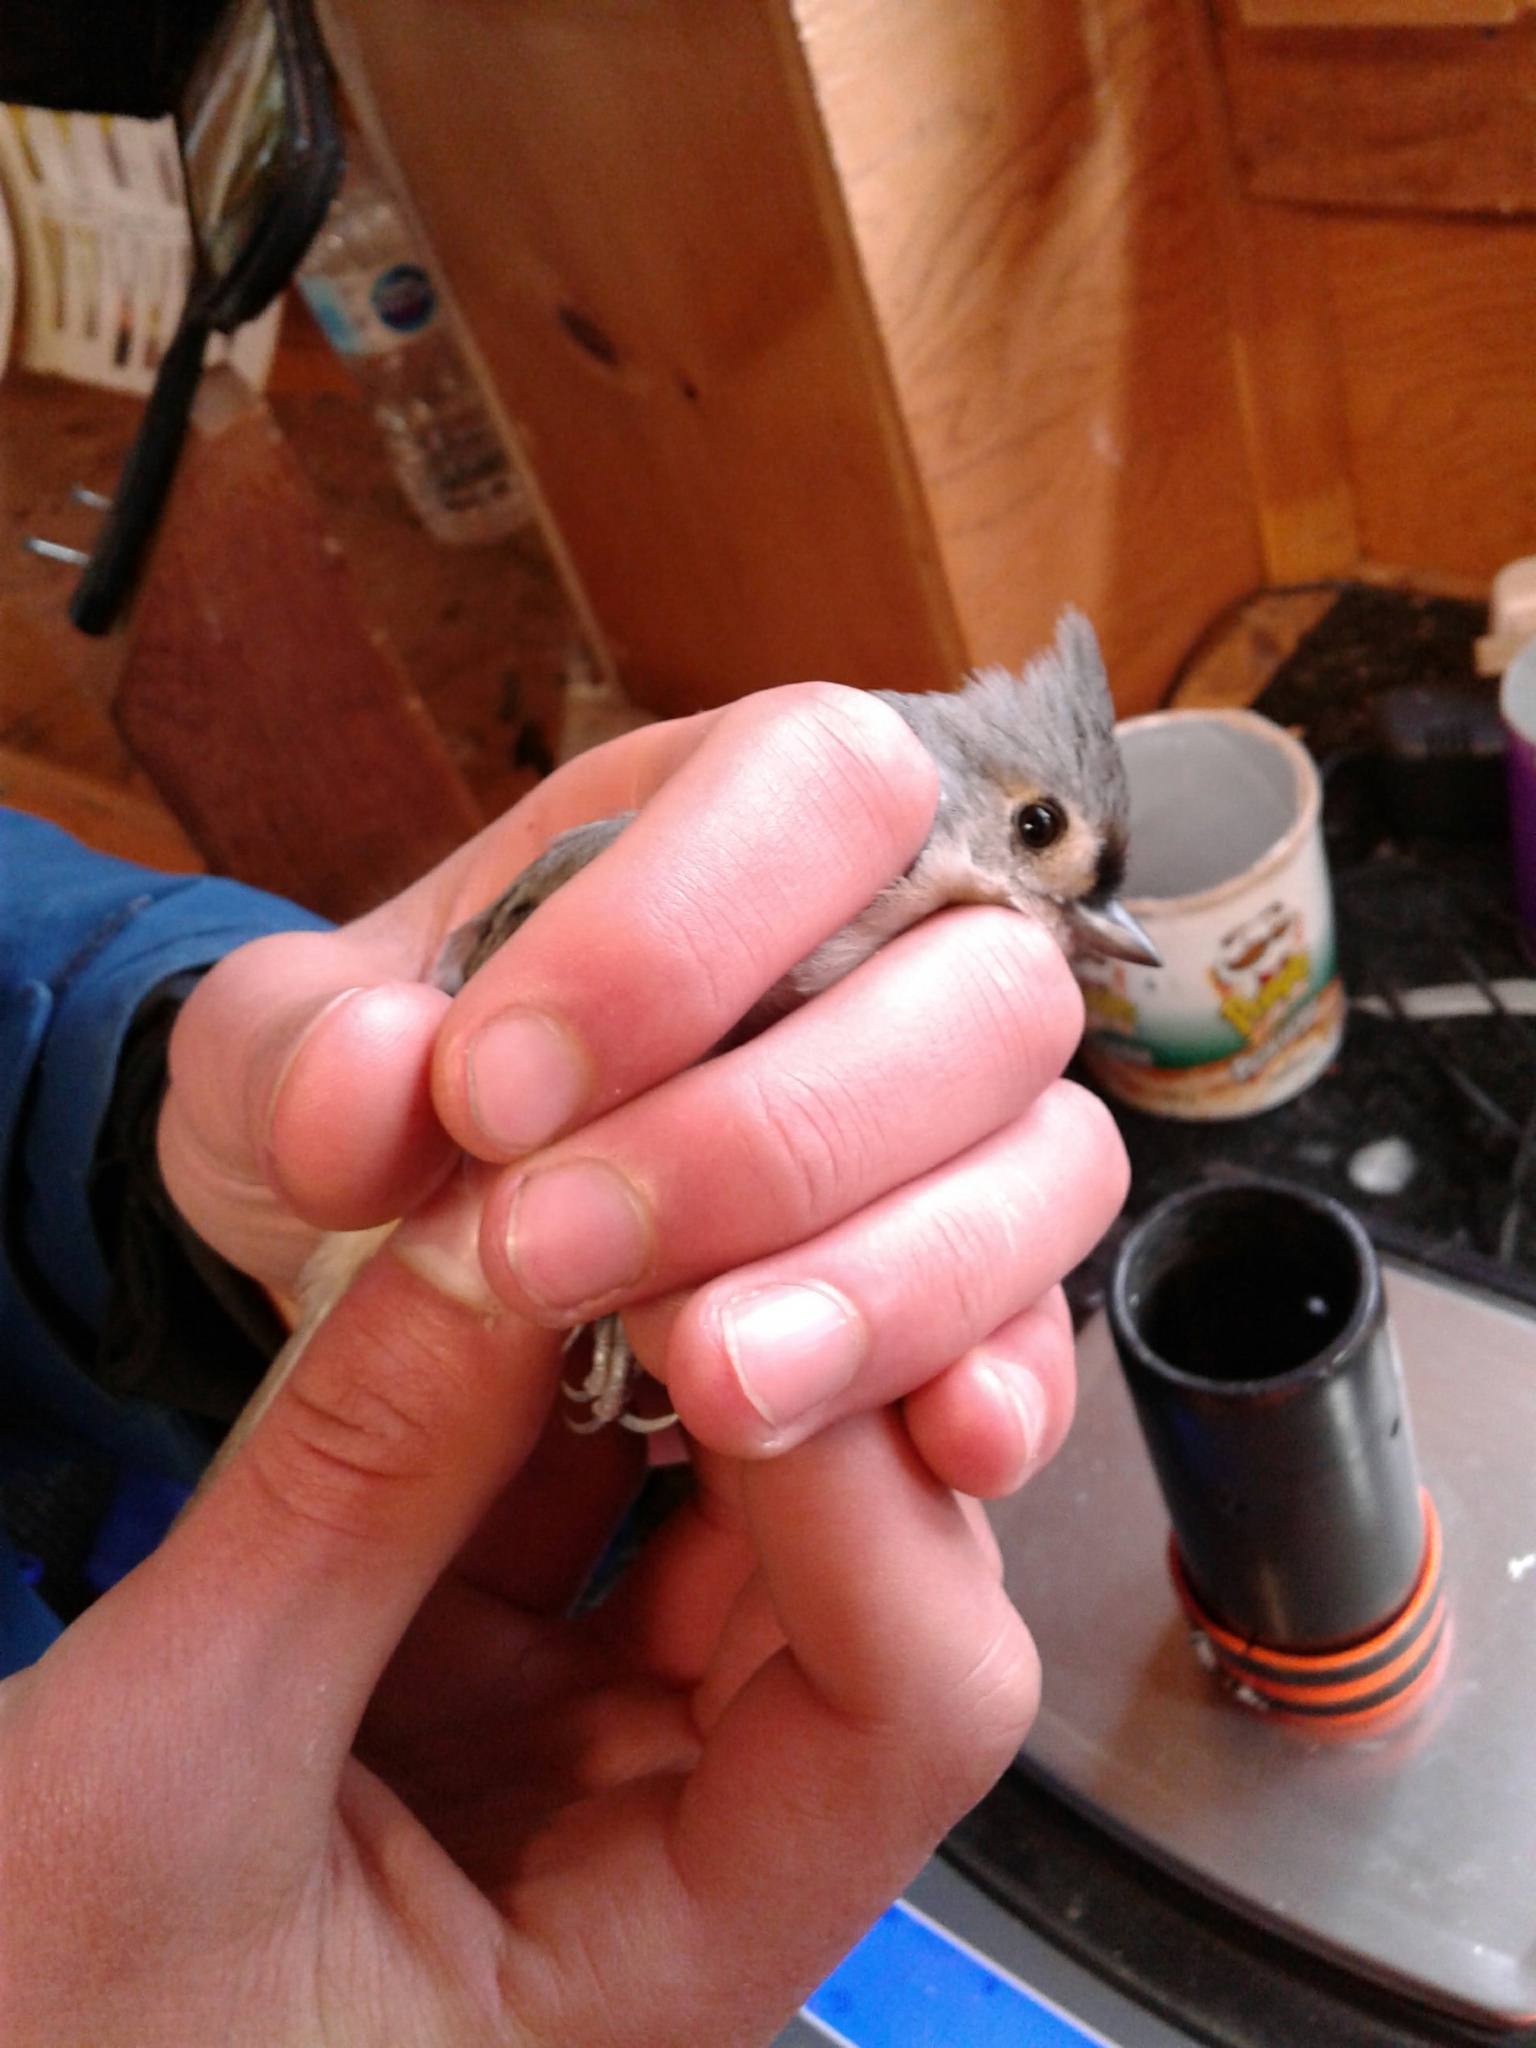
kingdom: Animalia
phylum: Chordata
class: Aves
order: Passeriformes
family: Paridae
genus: Baeolophus
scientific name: Baeolophus bicolor
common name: Tufted titmouse
